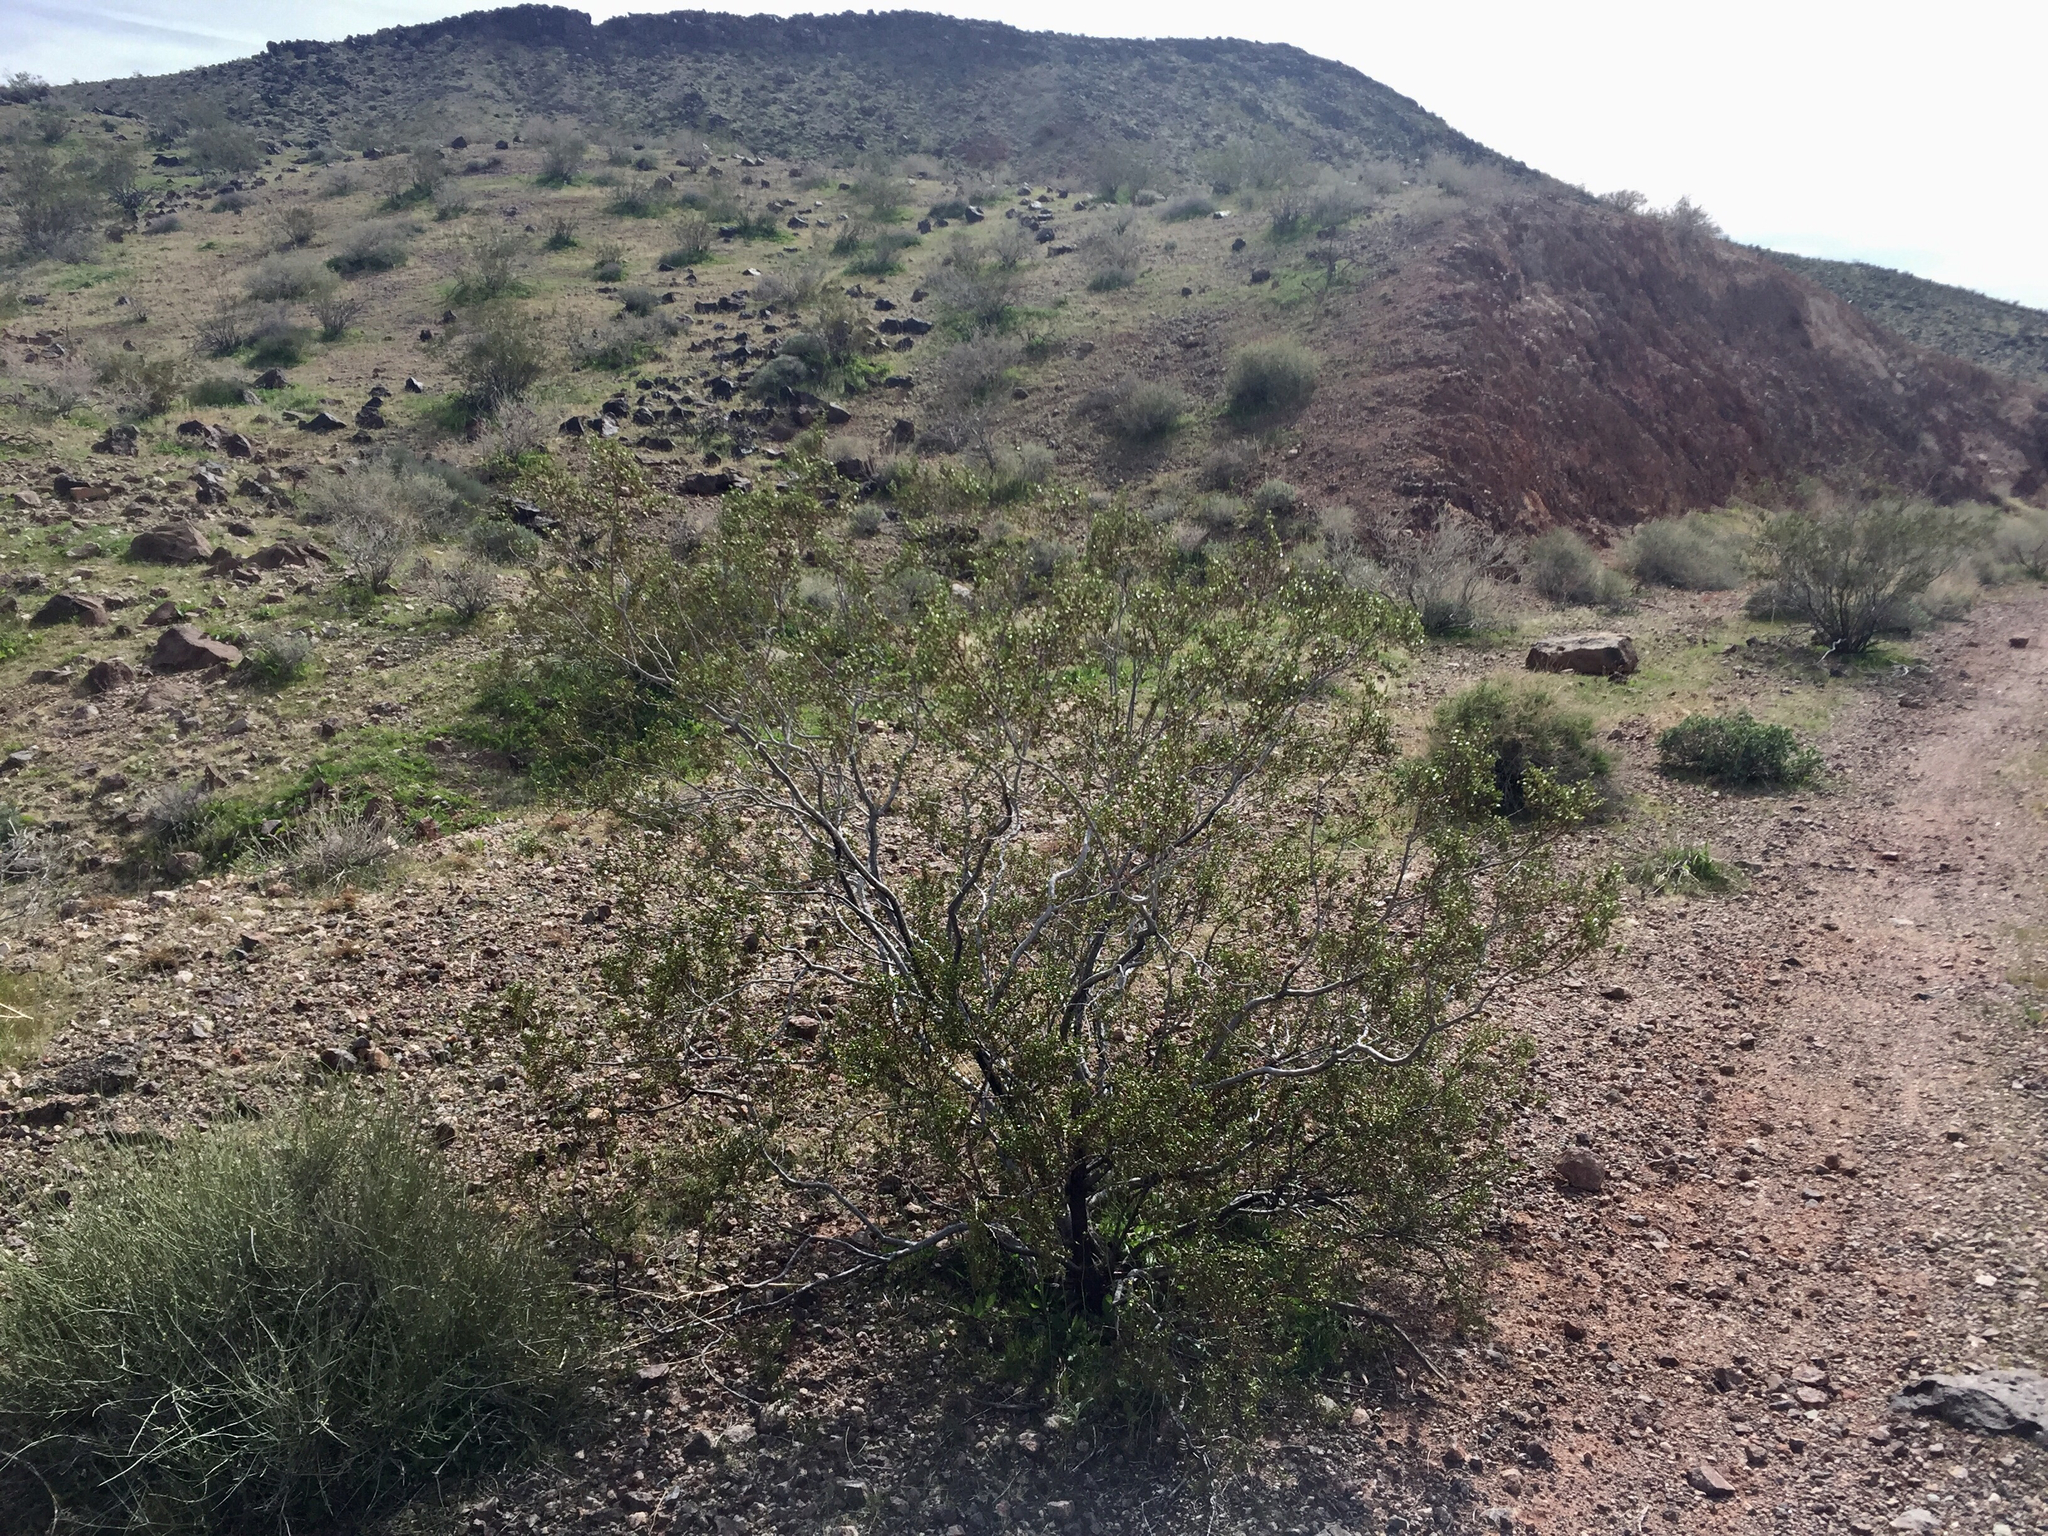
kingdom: Plantae
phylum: Tracheophyta
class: Magnoliopsida
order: Zygophyllales
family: Zygophyllaceae
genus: Larrea
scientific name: Larrea tridentata
